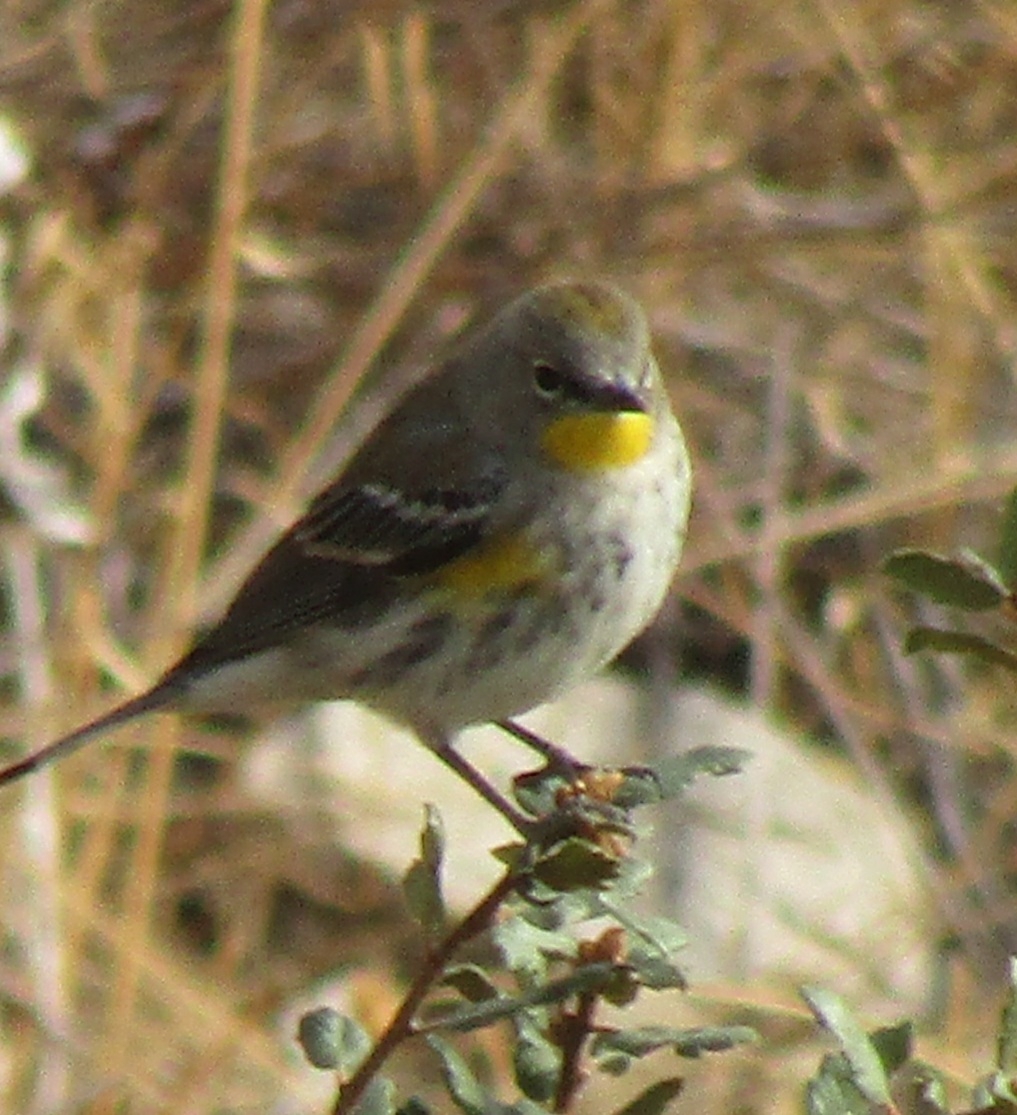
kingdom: Animalia
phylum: Chordata
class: Aves
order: Passeriformes
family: Parulidae
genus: Setophaga
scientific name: Setophaga coronata
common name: Myrtle warbler
